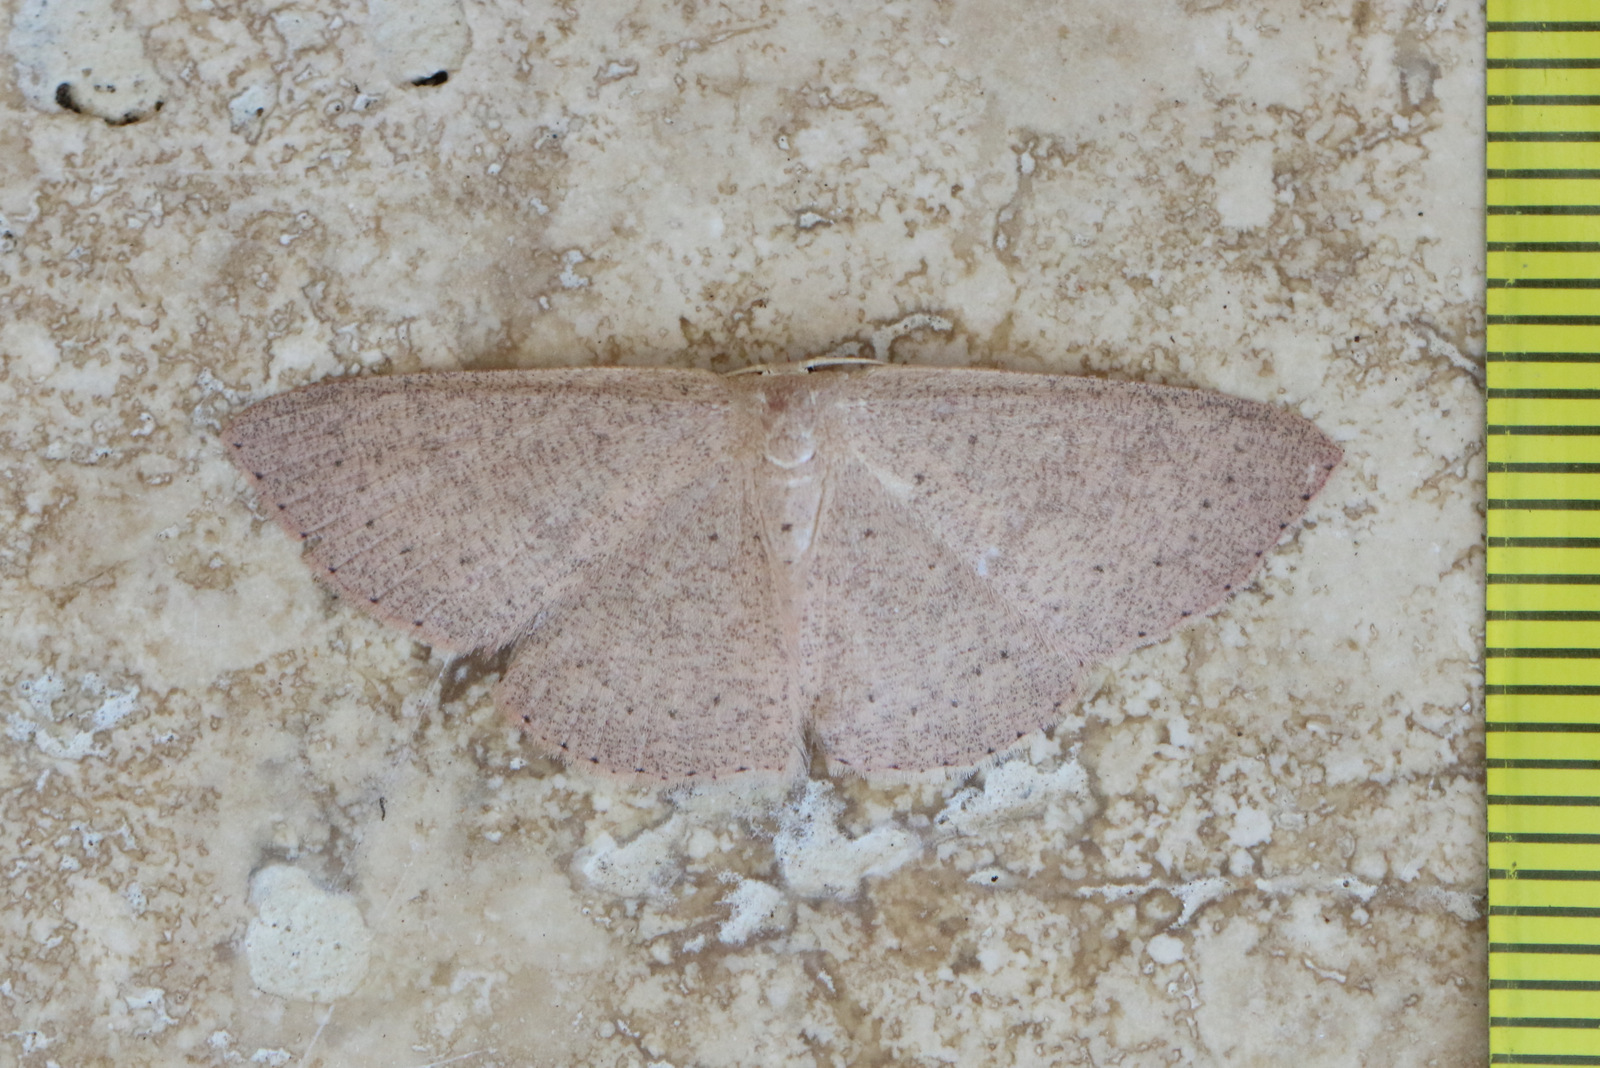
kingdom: Animalia
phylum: Arthropoda
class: Insecta
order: Lepidoptera
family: Geometridae
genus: Cyclophora
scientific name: Cyclophora obstataria
